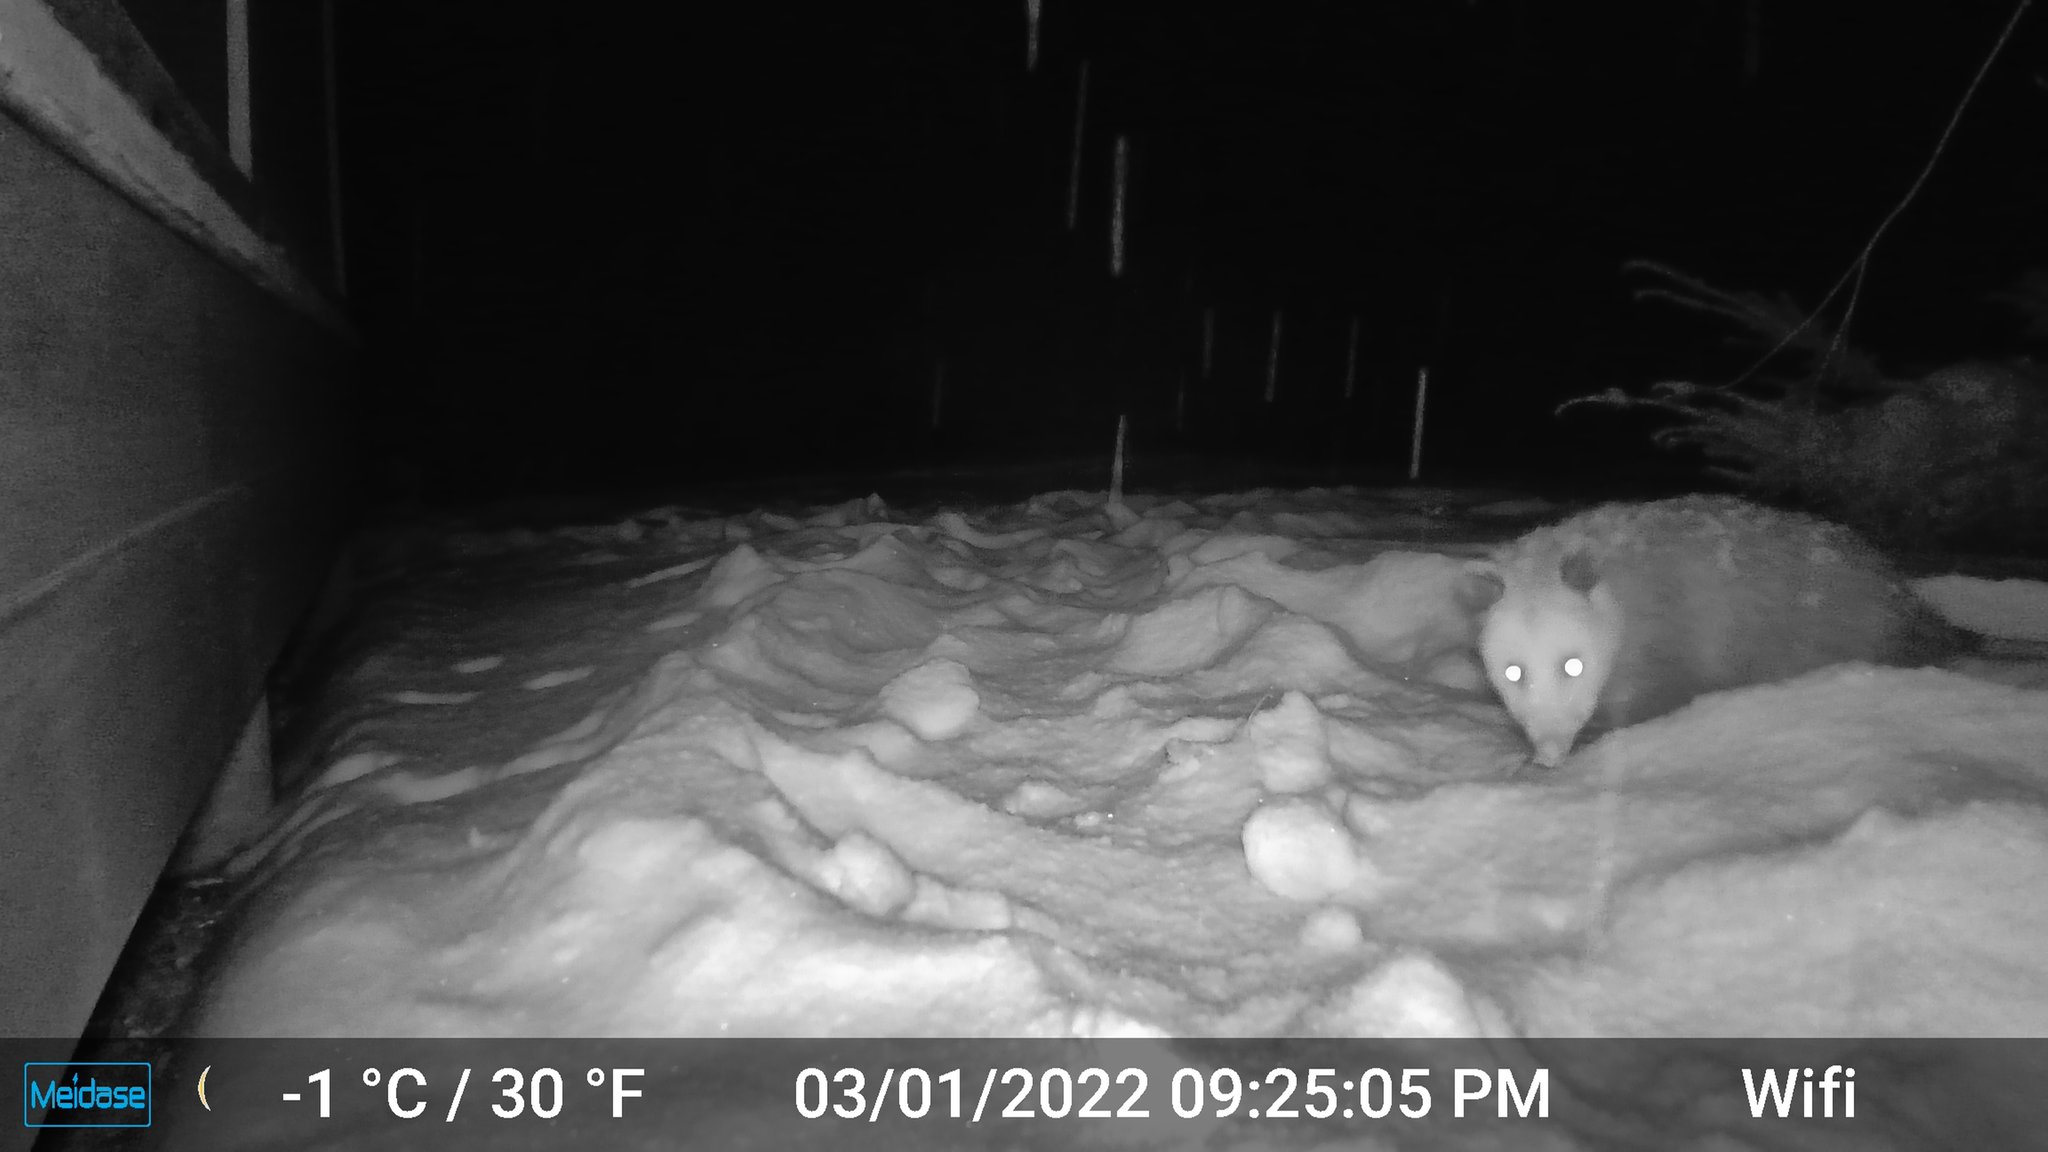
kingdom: Animalia
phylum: Chordata
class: Mammalia
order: Didelphimorphia
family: Didelphidae
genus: Didelphis
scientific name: Didelphis virginiana
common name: Virginia opossum
